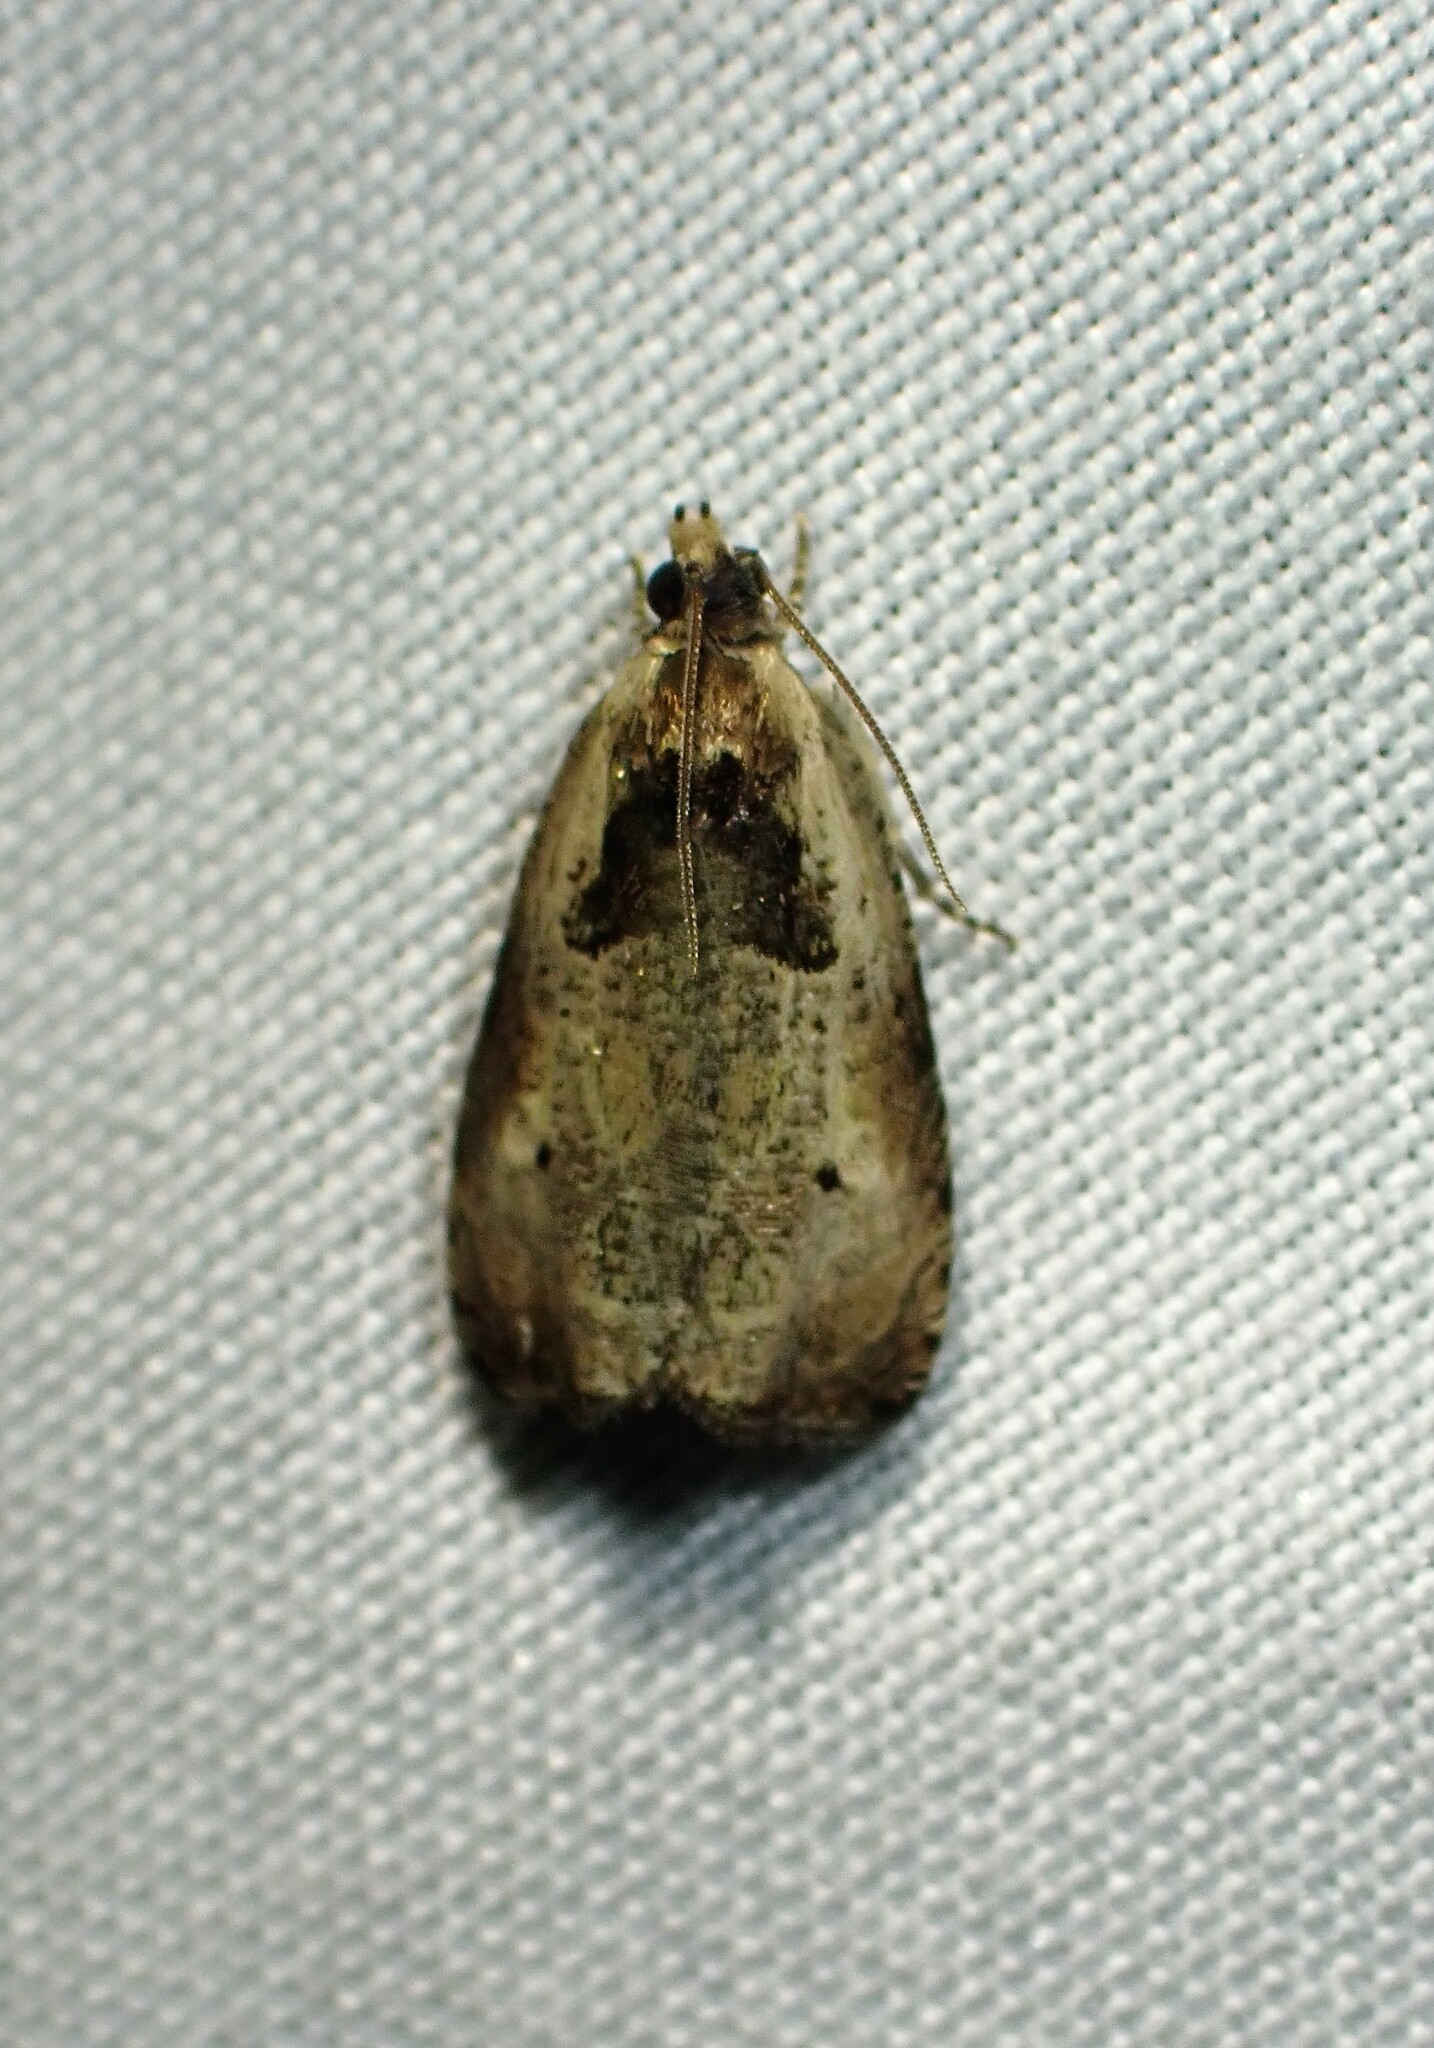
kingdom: Animalia
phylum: Arthropoda
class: Insecta
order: Lepidoptera
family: Tortricidae
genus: Olethreutes
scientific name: Olethreutes punctanum
